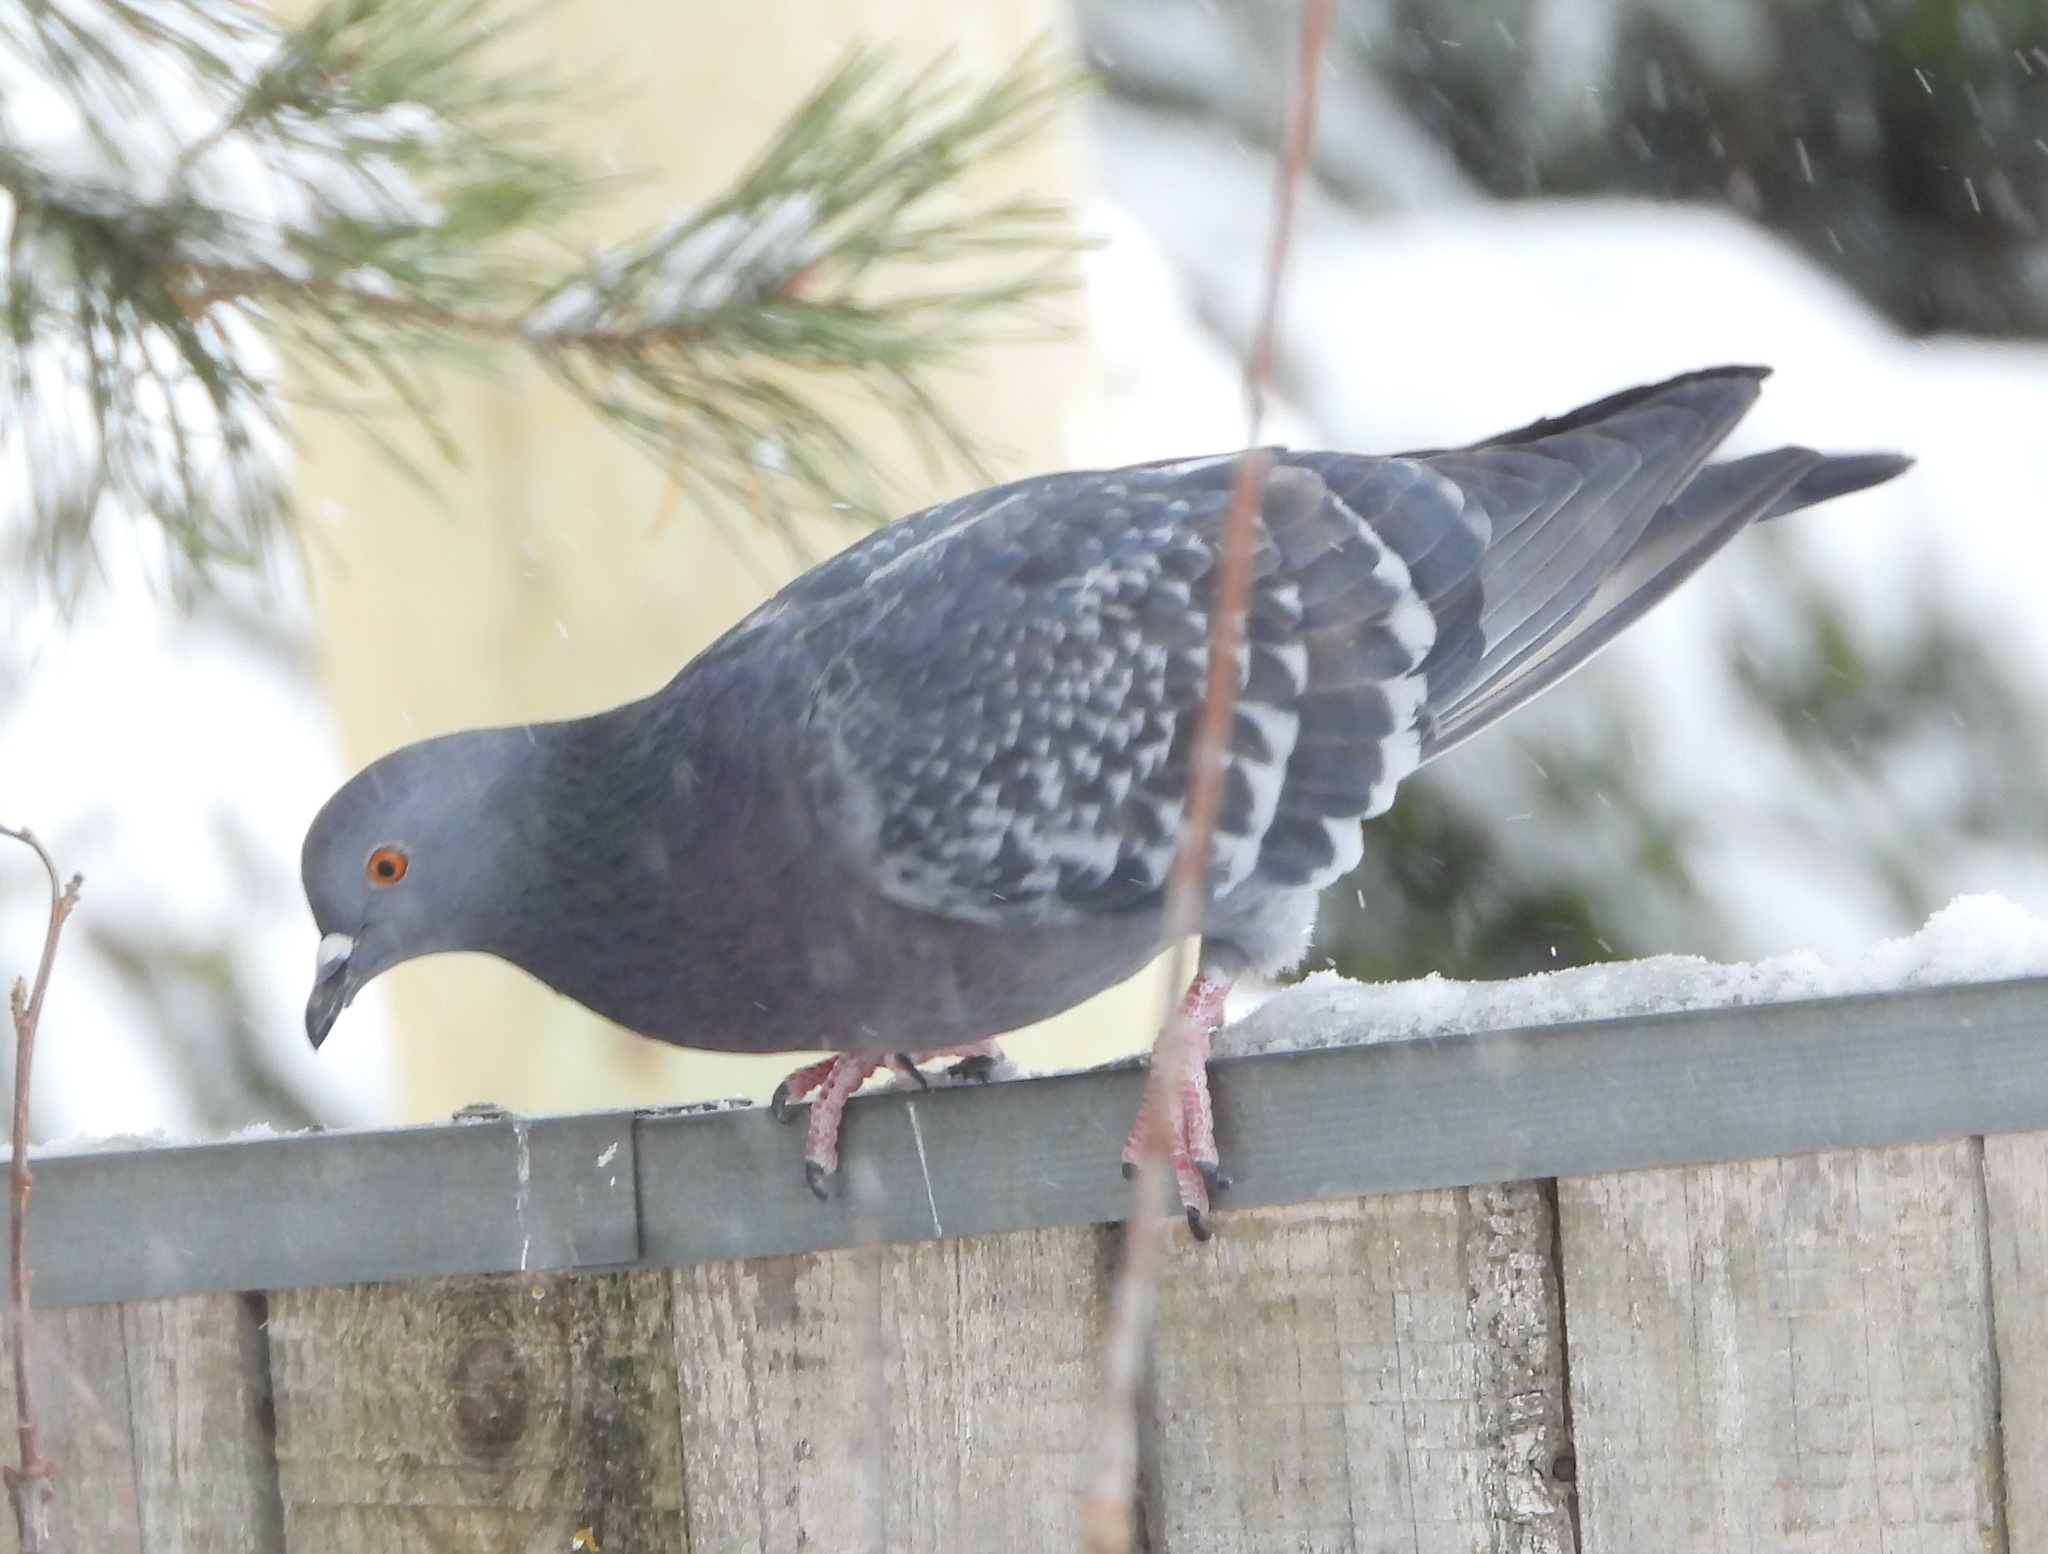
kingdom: Animalia
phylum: Chordata
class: Aves
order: Columbiformes
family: Columbidae
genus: Columba
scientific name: Columba livia
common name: Rock pigeon
